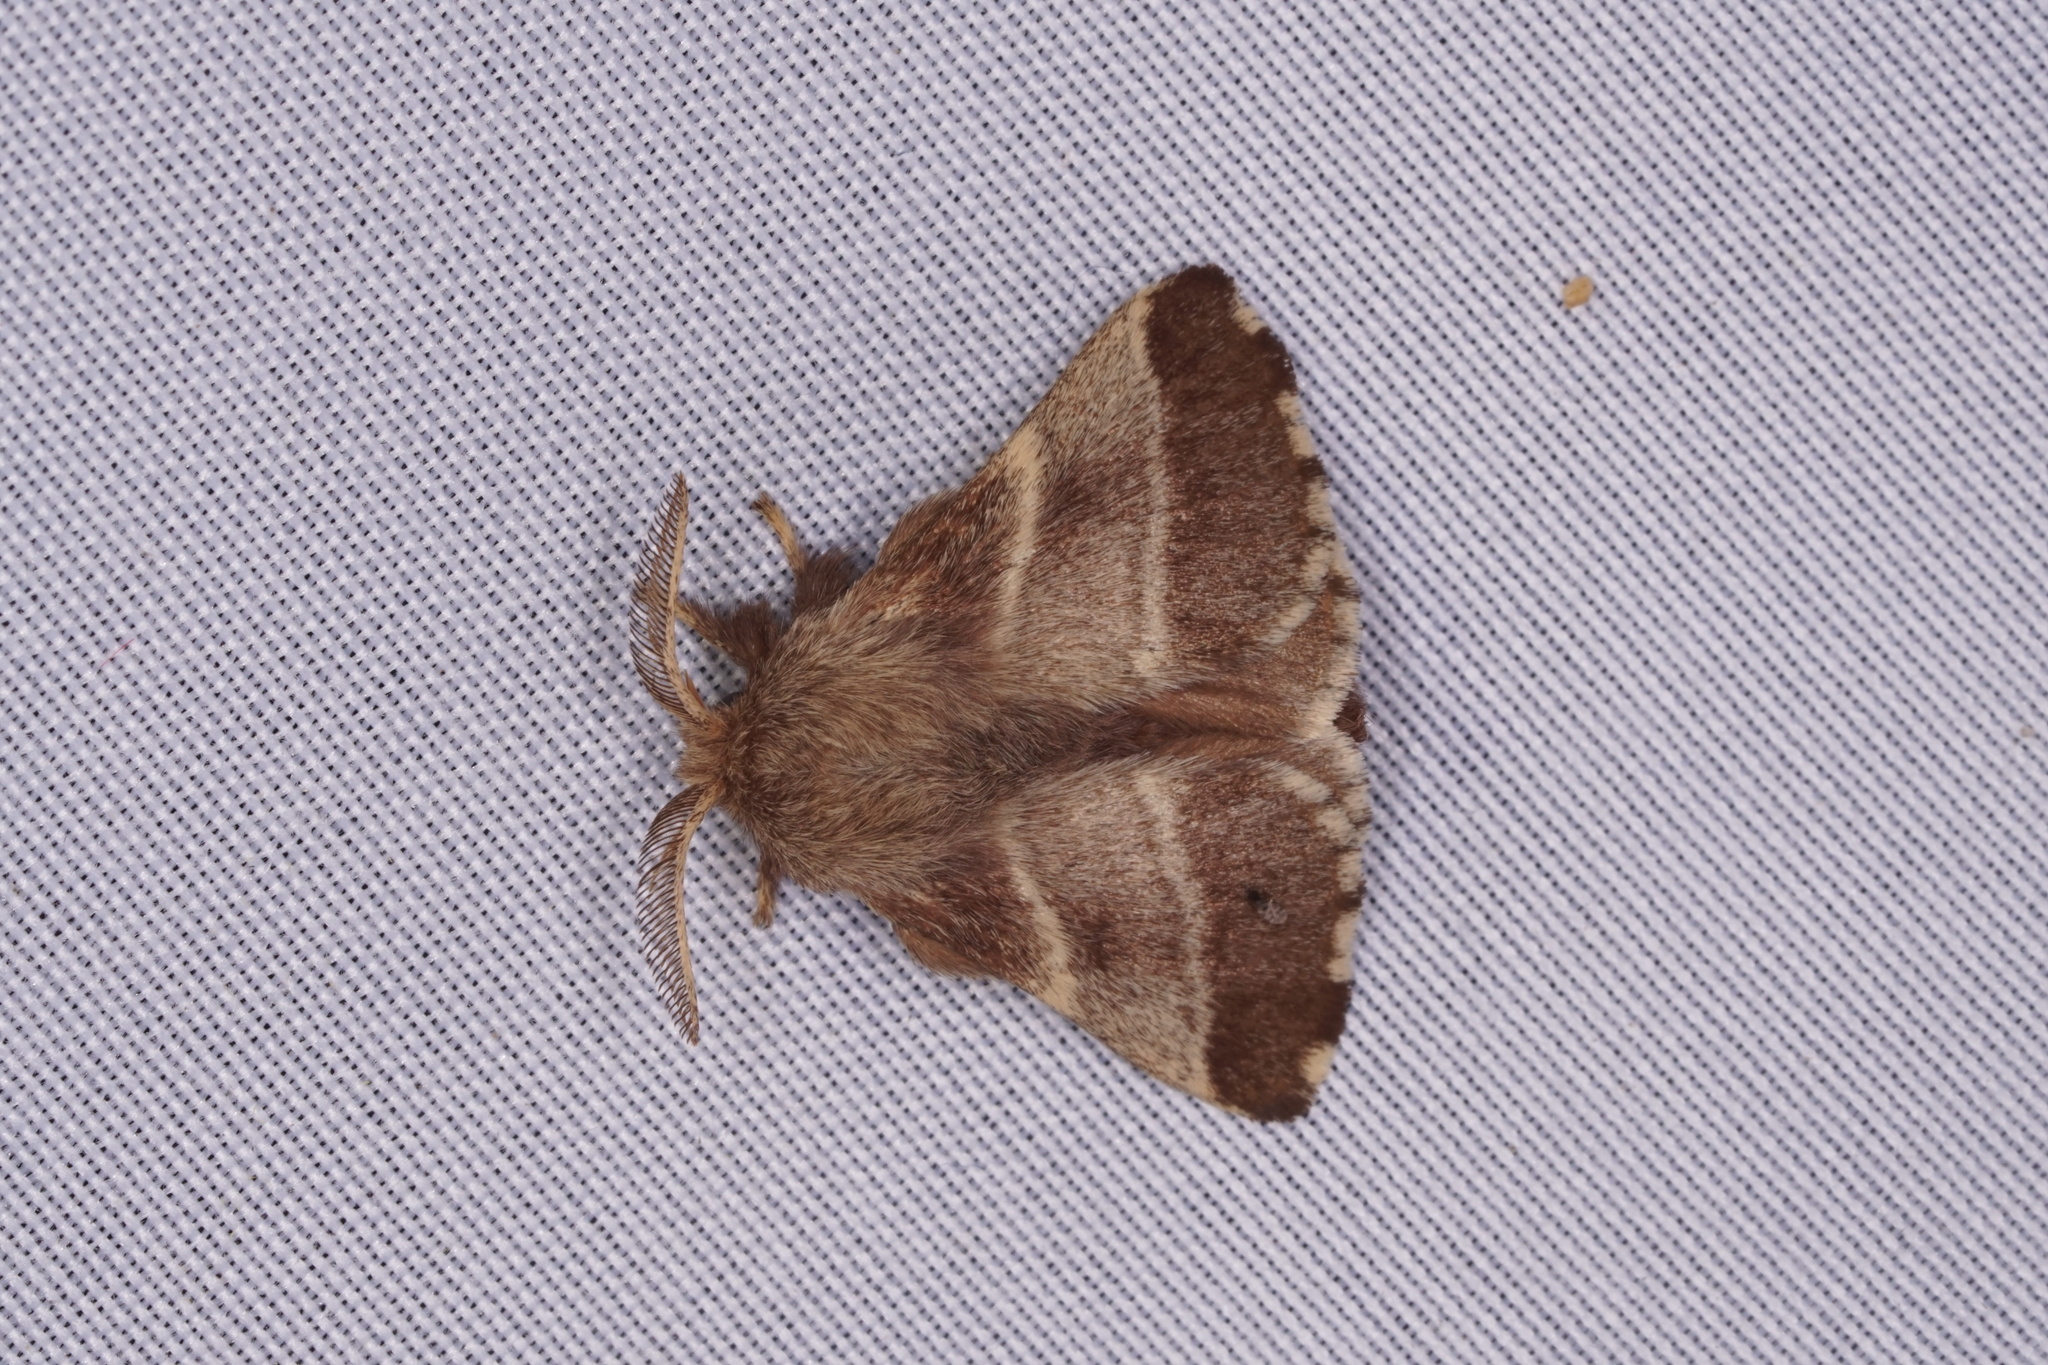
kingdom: Animalia
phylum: Arthropoda
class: Insecta
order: Lepidoptera
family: Lasiocampidae
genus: Malacosoma
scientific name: Malacosoma americana
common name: Eastern tent caterpillar moth
